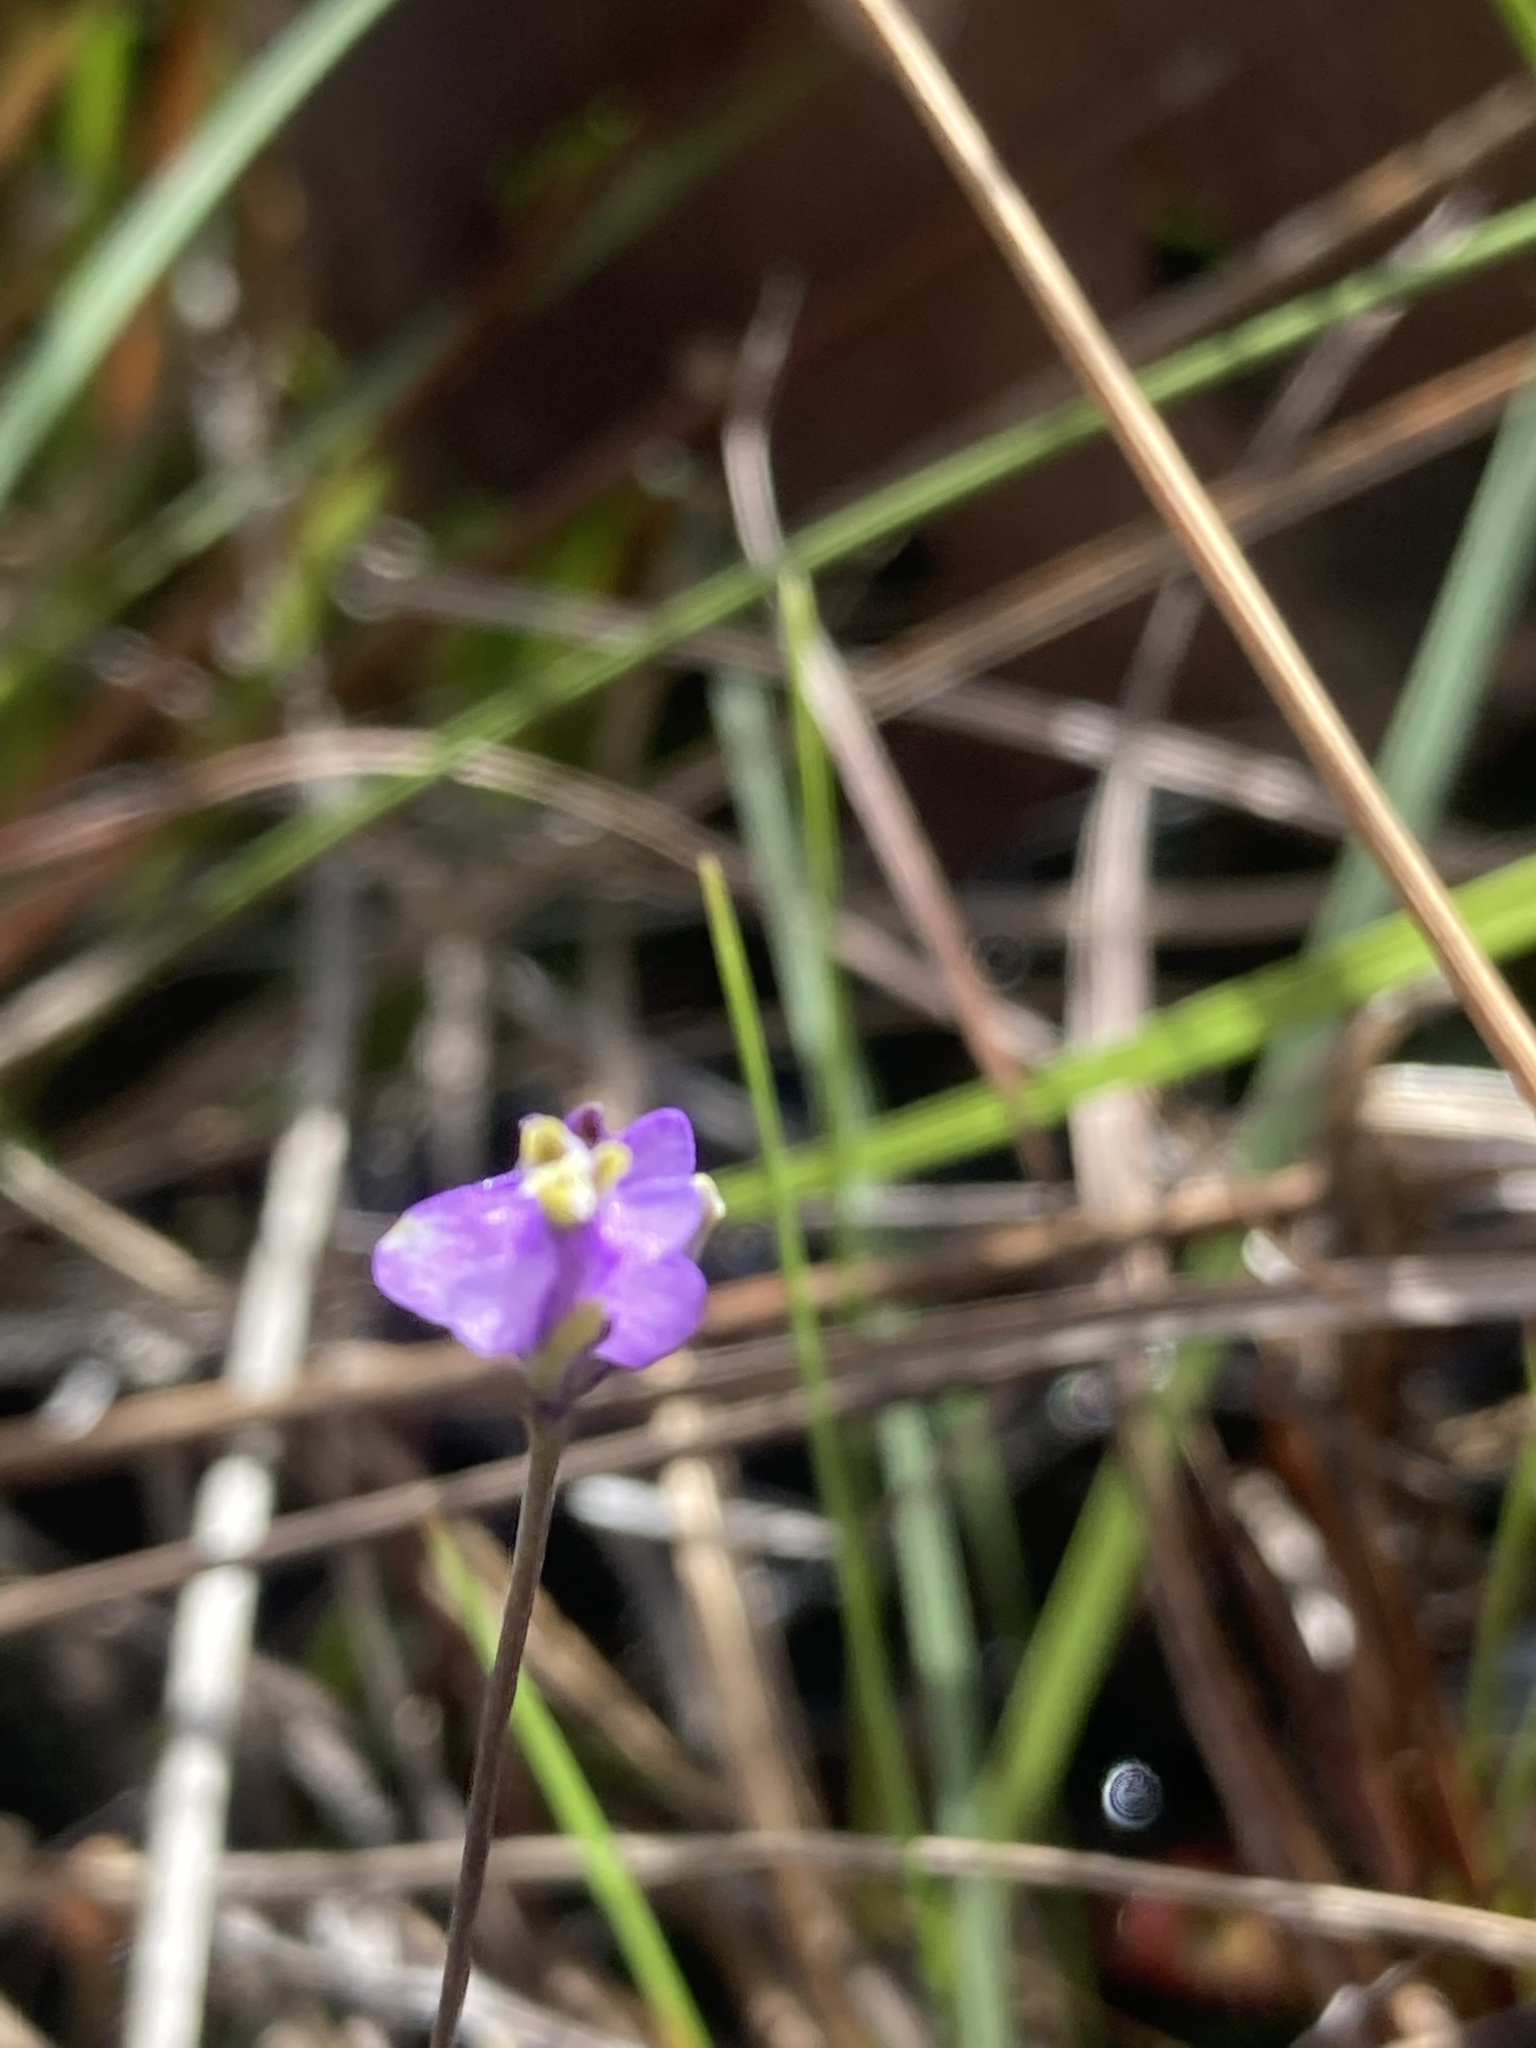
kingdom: Plantae
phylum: Tracheophyta
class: Liliopsida
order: Dioscoreales
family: Burmanniaceae
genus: Burmannia
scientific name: Burmannia biflora
